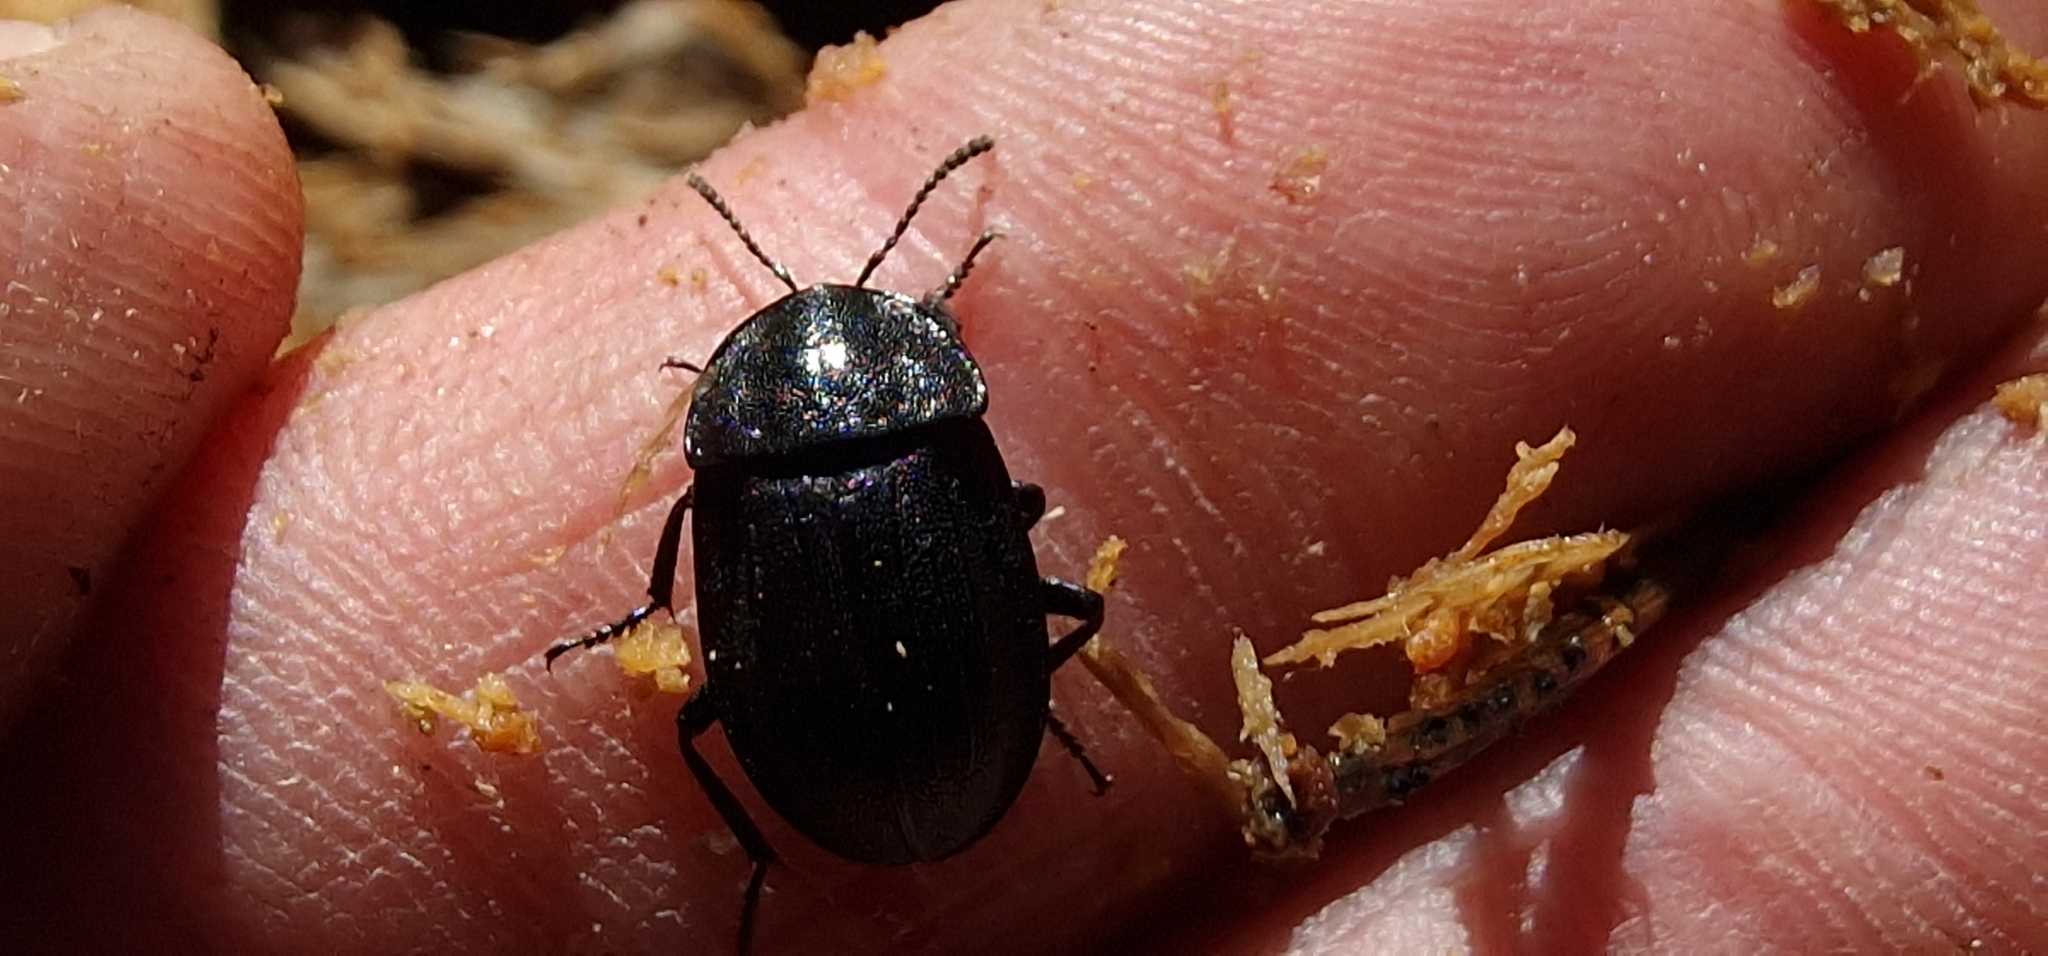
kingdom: Animalia
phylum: Arthropoda
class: Insecta
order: Coleoptera
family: Staphylinidae
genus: Silpha
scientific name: Silpha atrata
